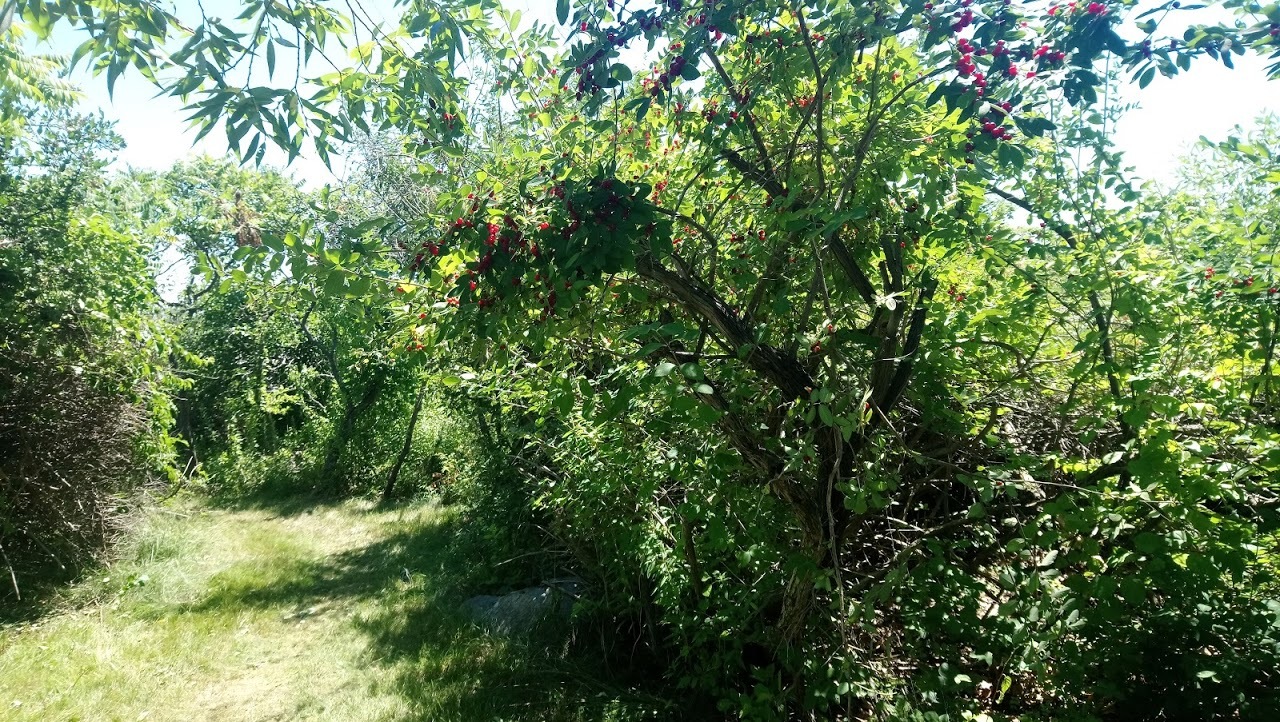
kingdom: Plantae
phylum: Tracheophyta
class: Magnoliopsida
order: Dipsacales
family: Caprifoliaceae
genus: Lonicera
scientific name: Lonicera morrowii
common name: Morrow's honeysuckle
